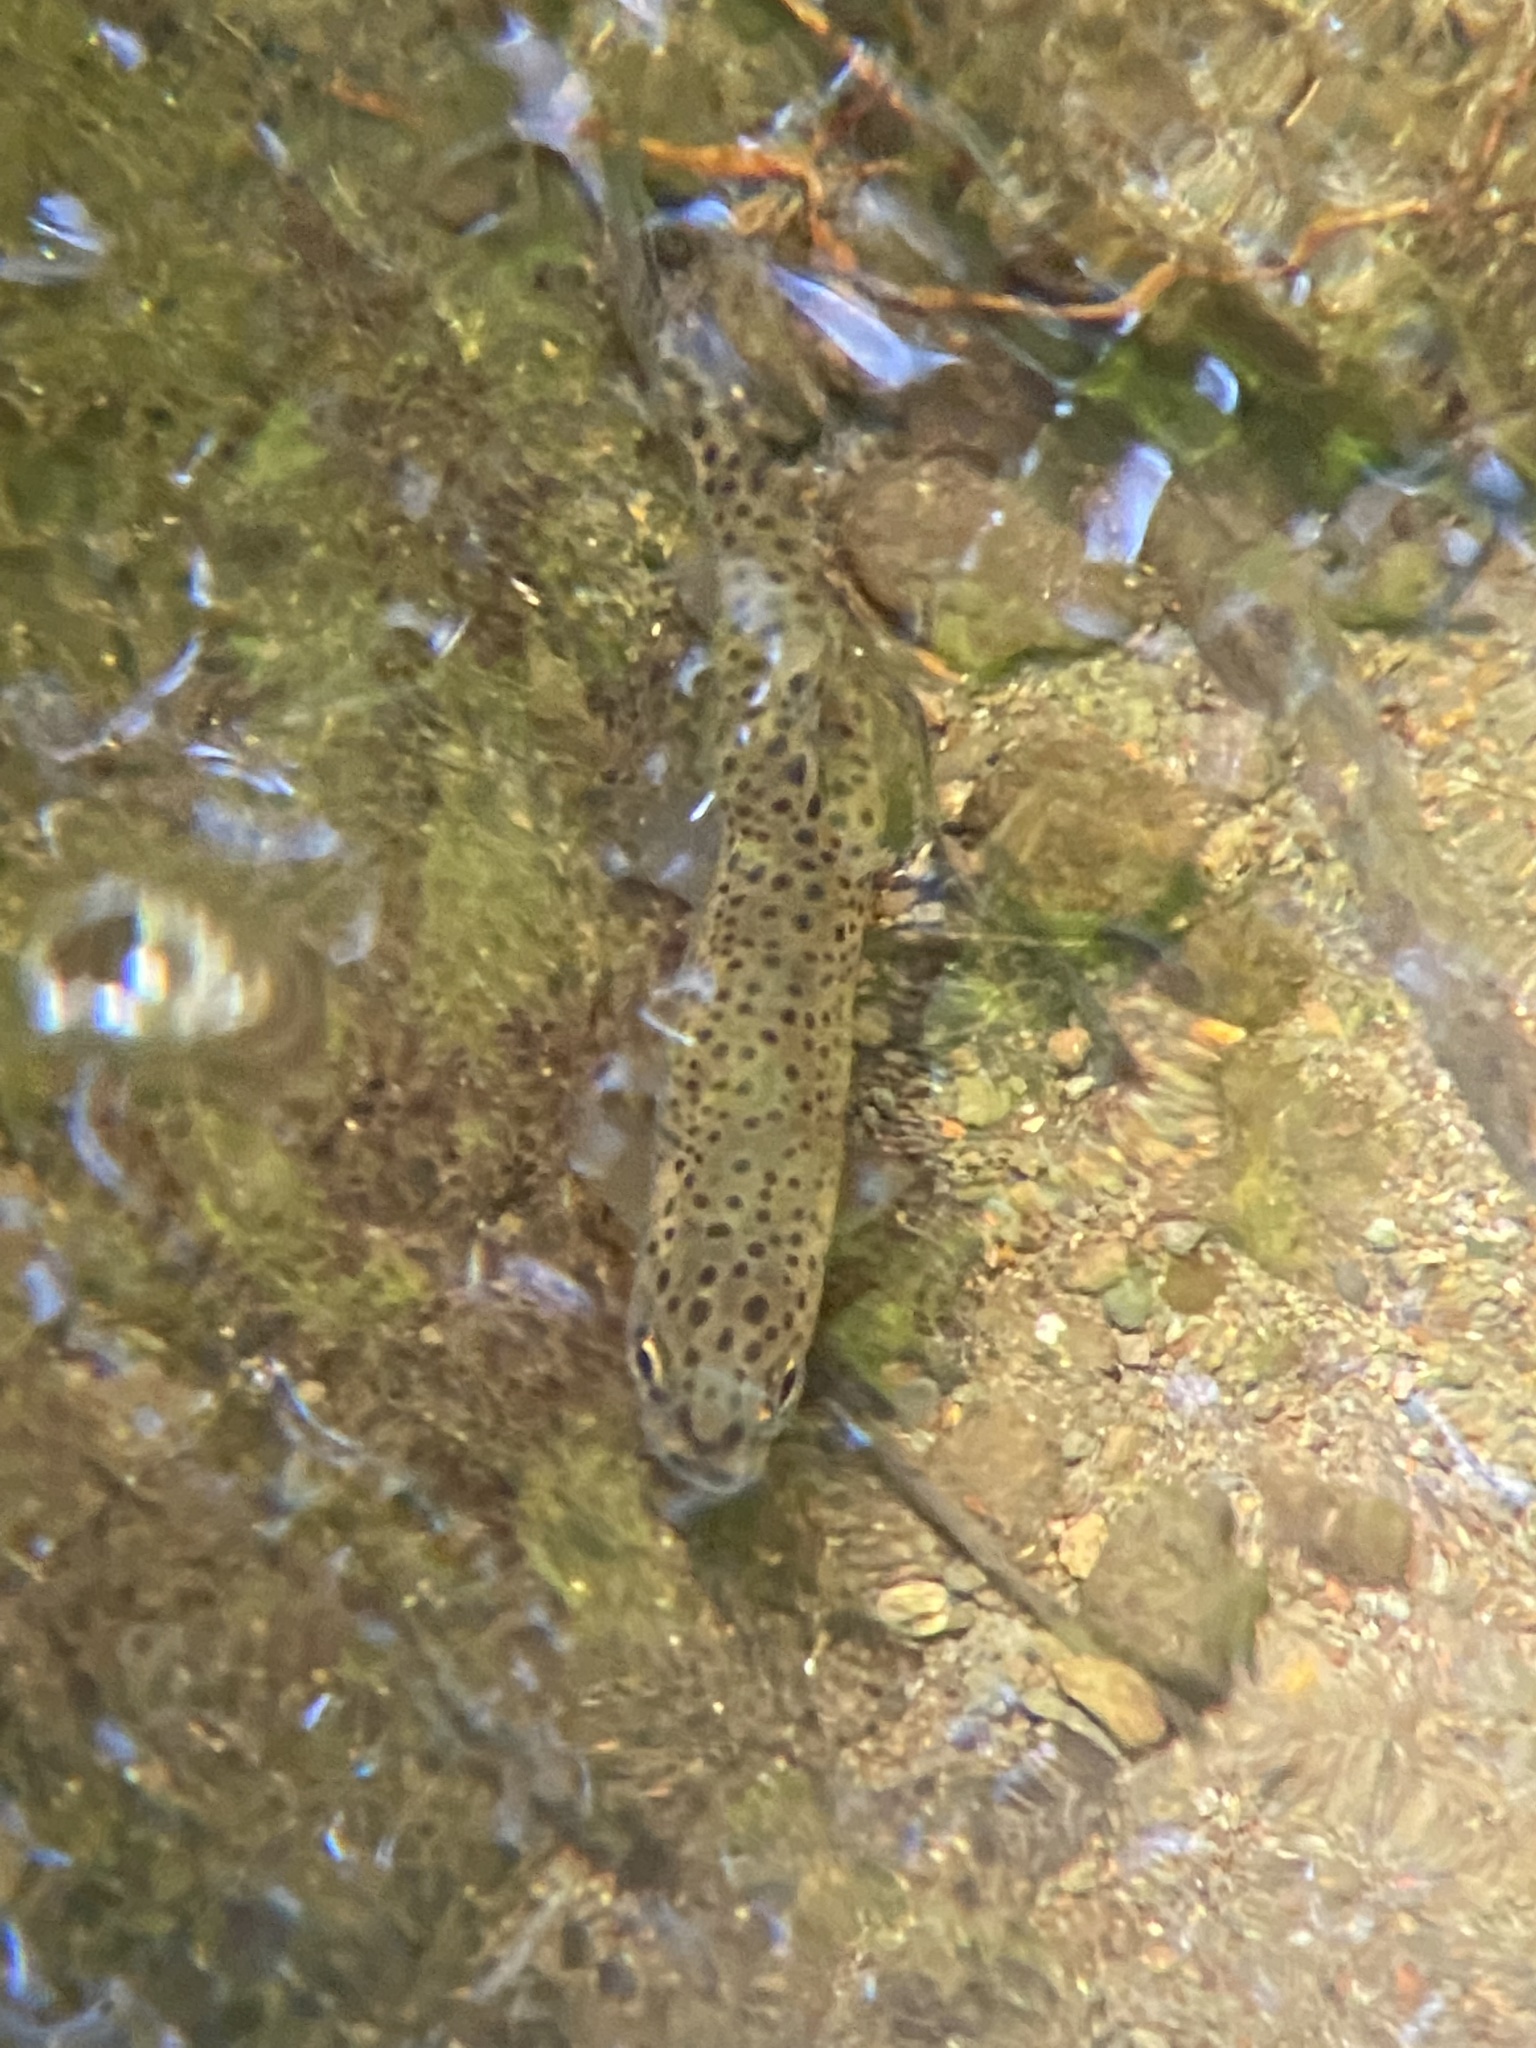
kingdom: Animalia
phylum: Chordata
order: Salmoniformes
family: Salmonidae
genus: Oncorhynchus
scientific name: Oncorhynchus mykiss
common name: Rainbow trout
